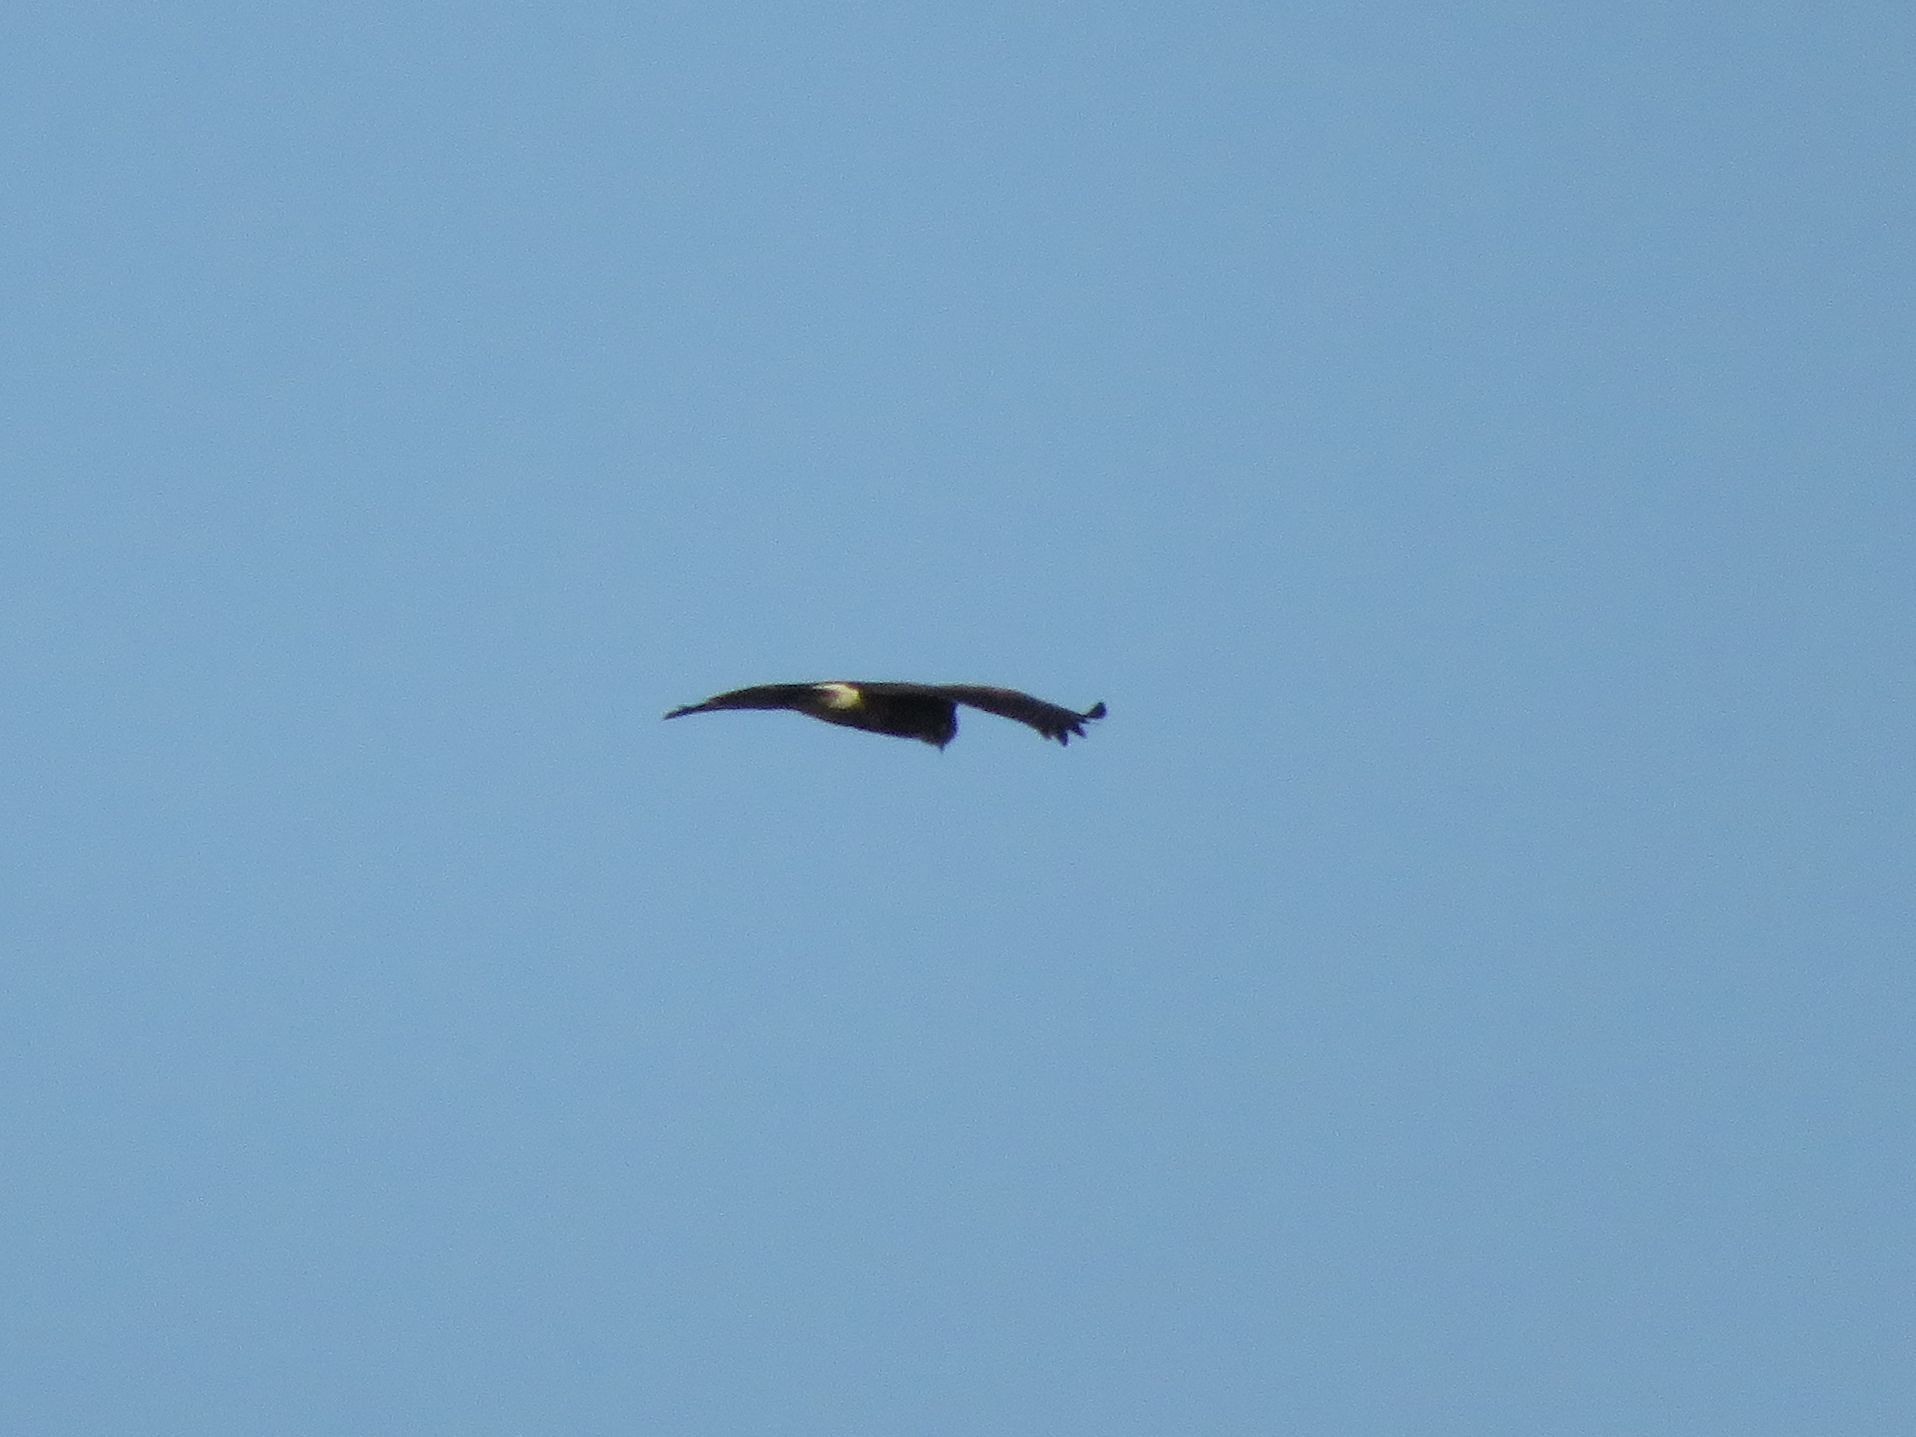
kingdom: Animalia
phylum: Chordata
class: Aves
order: Accipitriformes
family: Accipitridae
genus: Parabuteo
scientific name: Parabuteo unicinctus
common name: Harris's hawk
